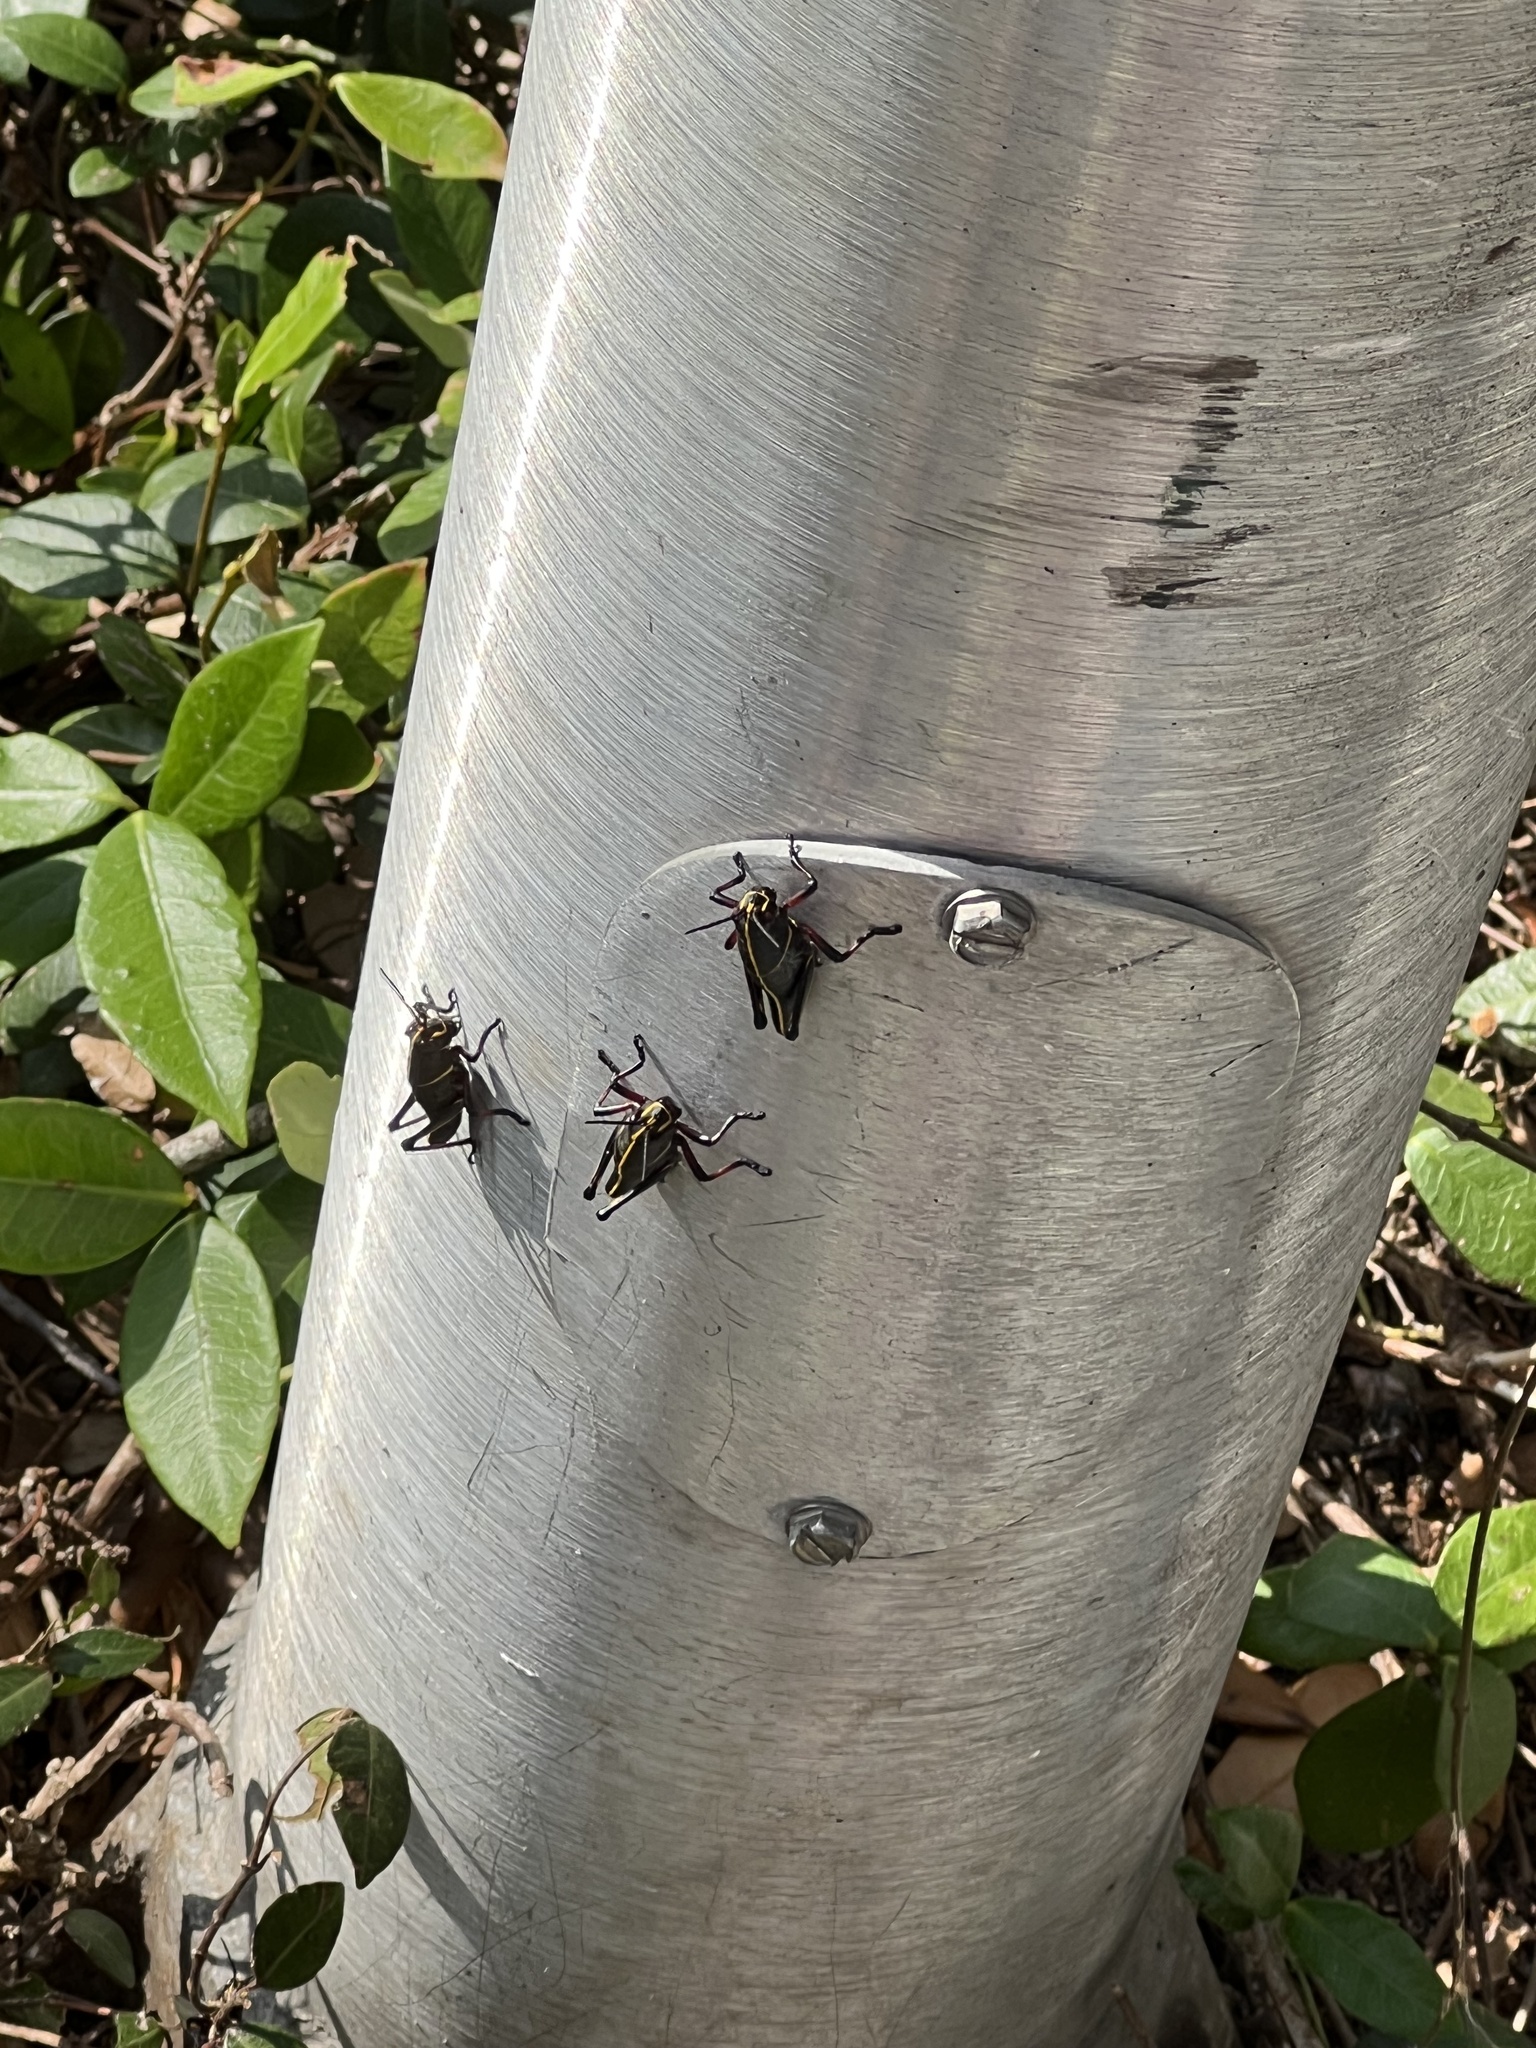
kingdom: Animalia
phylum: Arthropoda
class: Insecta
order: Orthoptera
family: Romaleidae
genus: Romalea
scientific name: Romalea microptera
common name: Eastern lubber grasshopper
